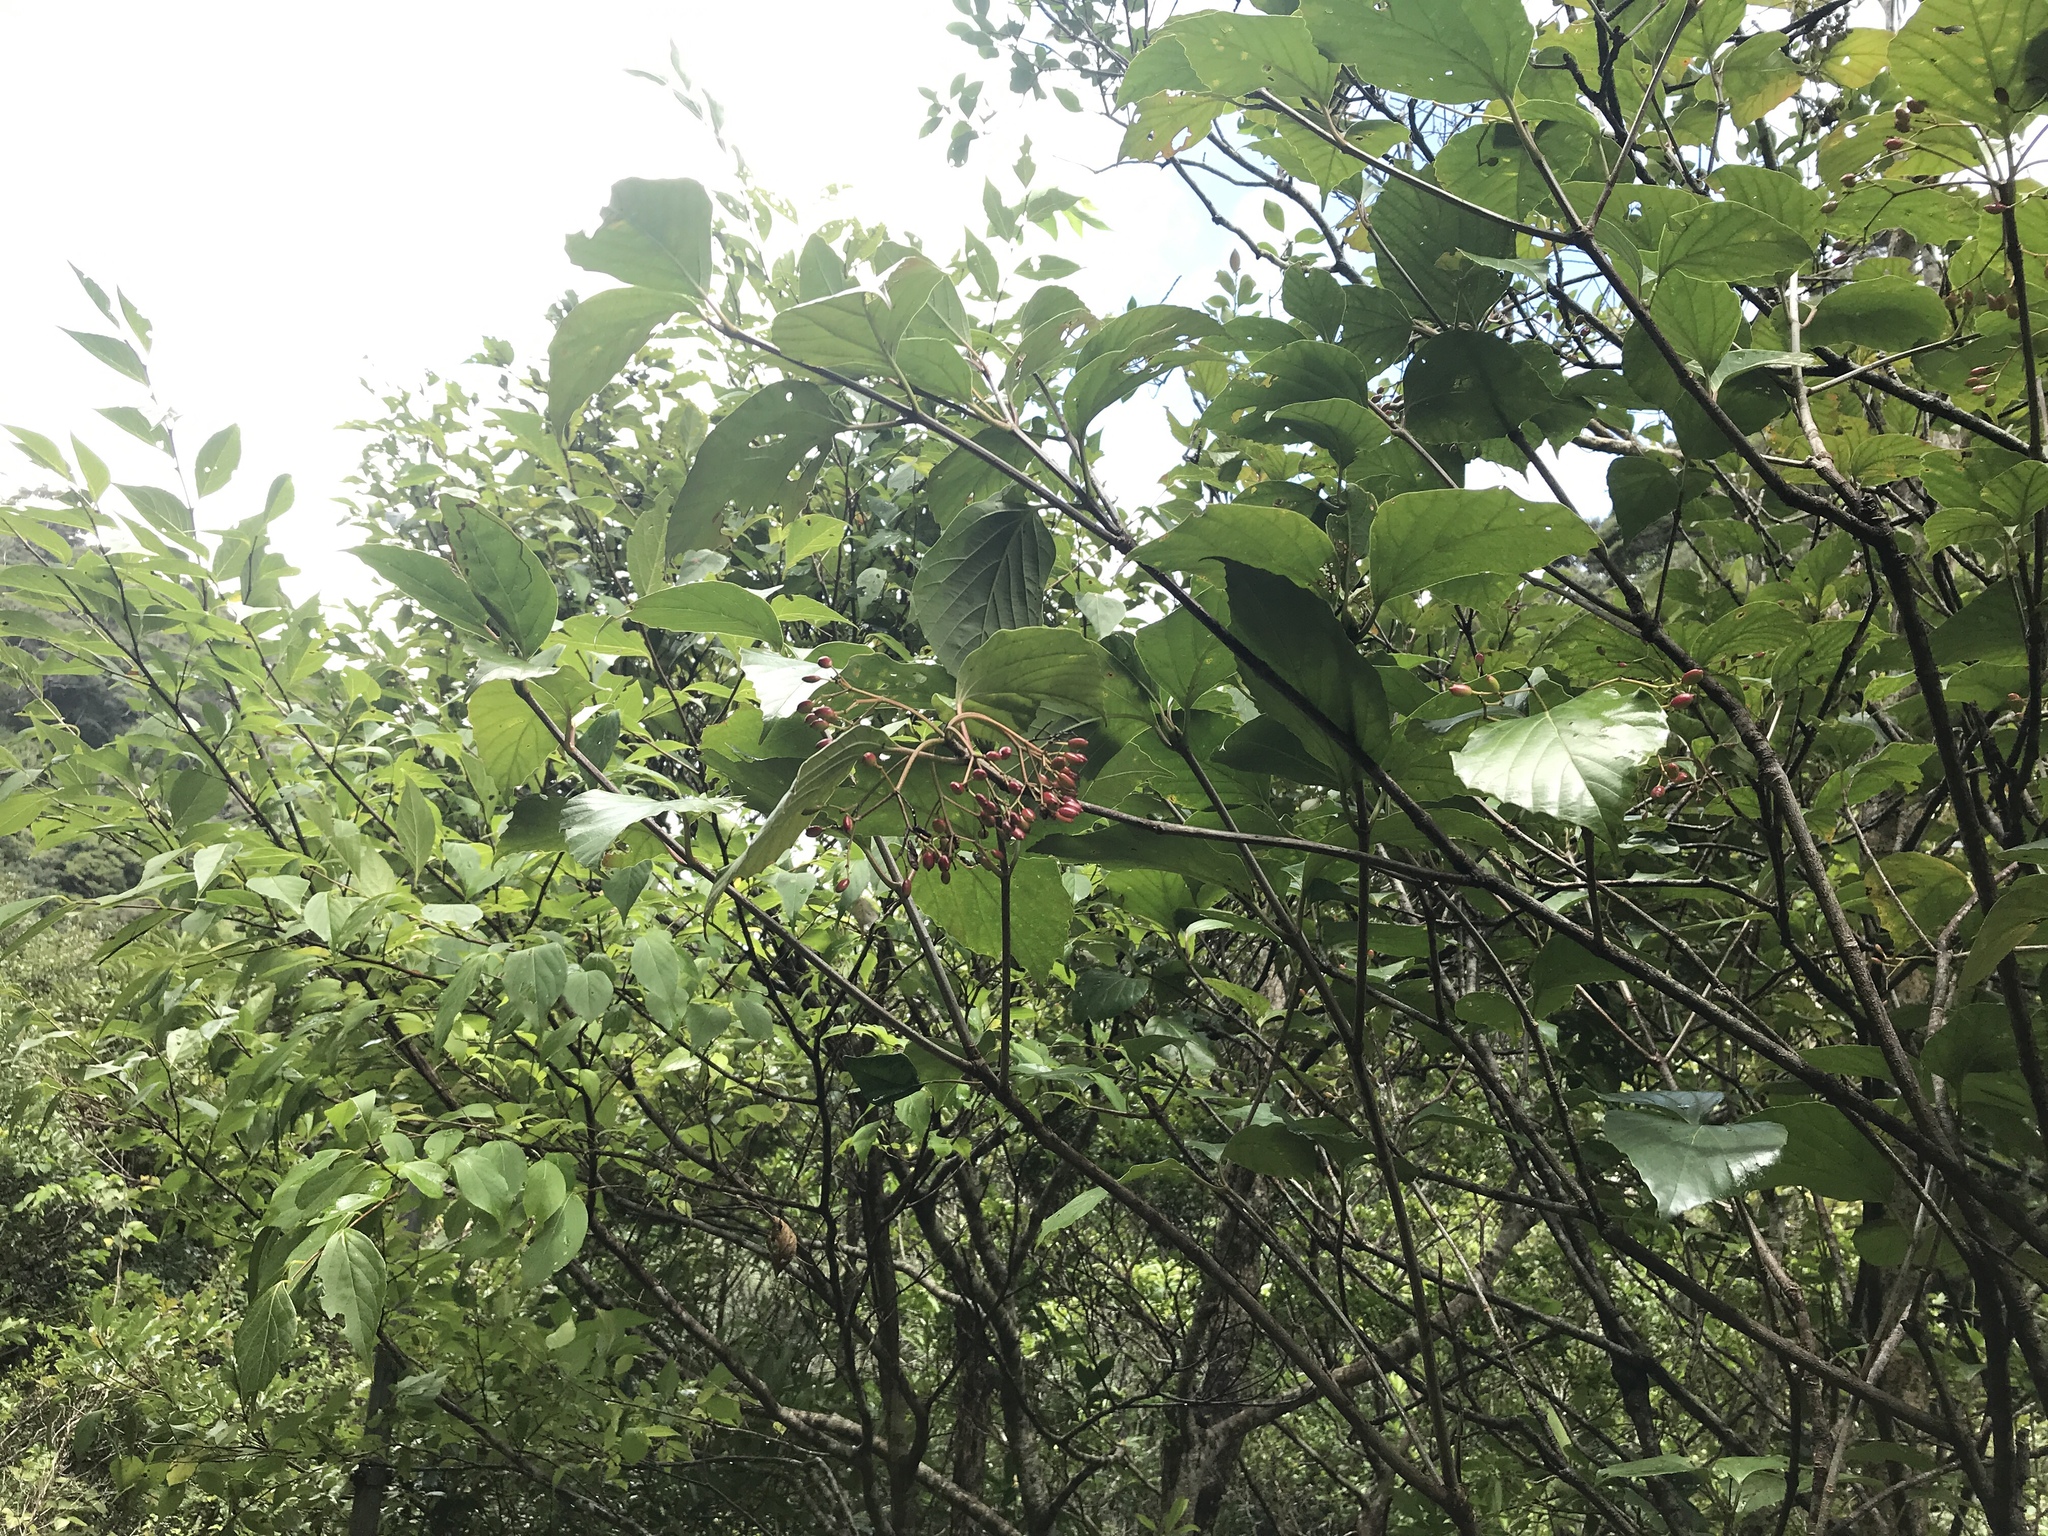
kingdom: Plantae
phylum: Tracheophyta
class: Magnoliopsida
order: Dipsacales
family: Viburnaceae
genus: Viburnum
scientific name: Viburnum japonicum
